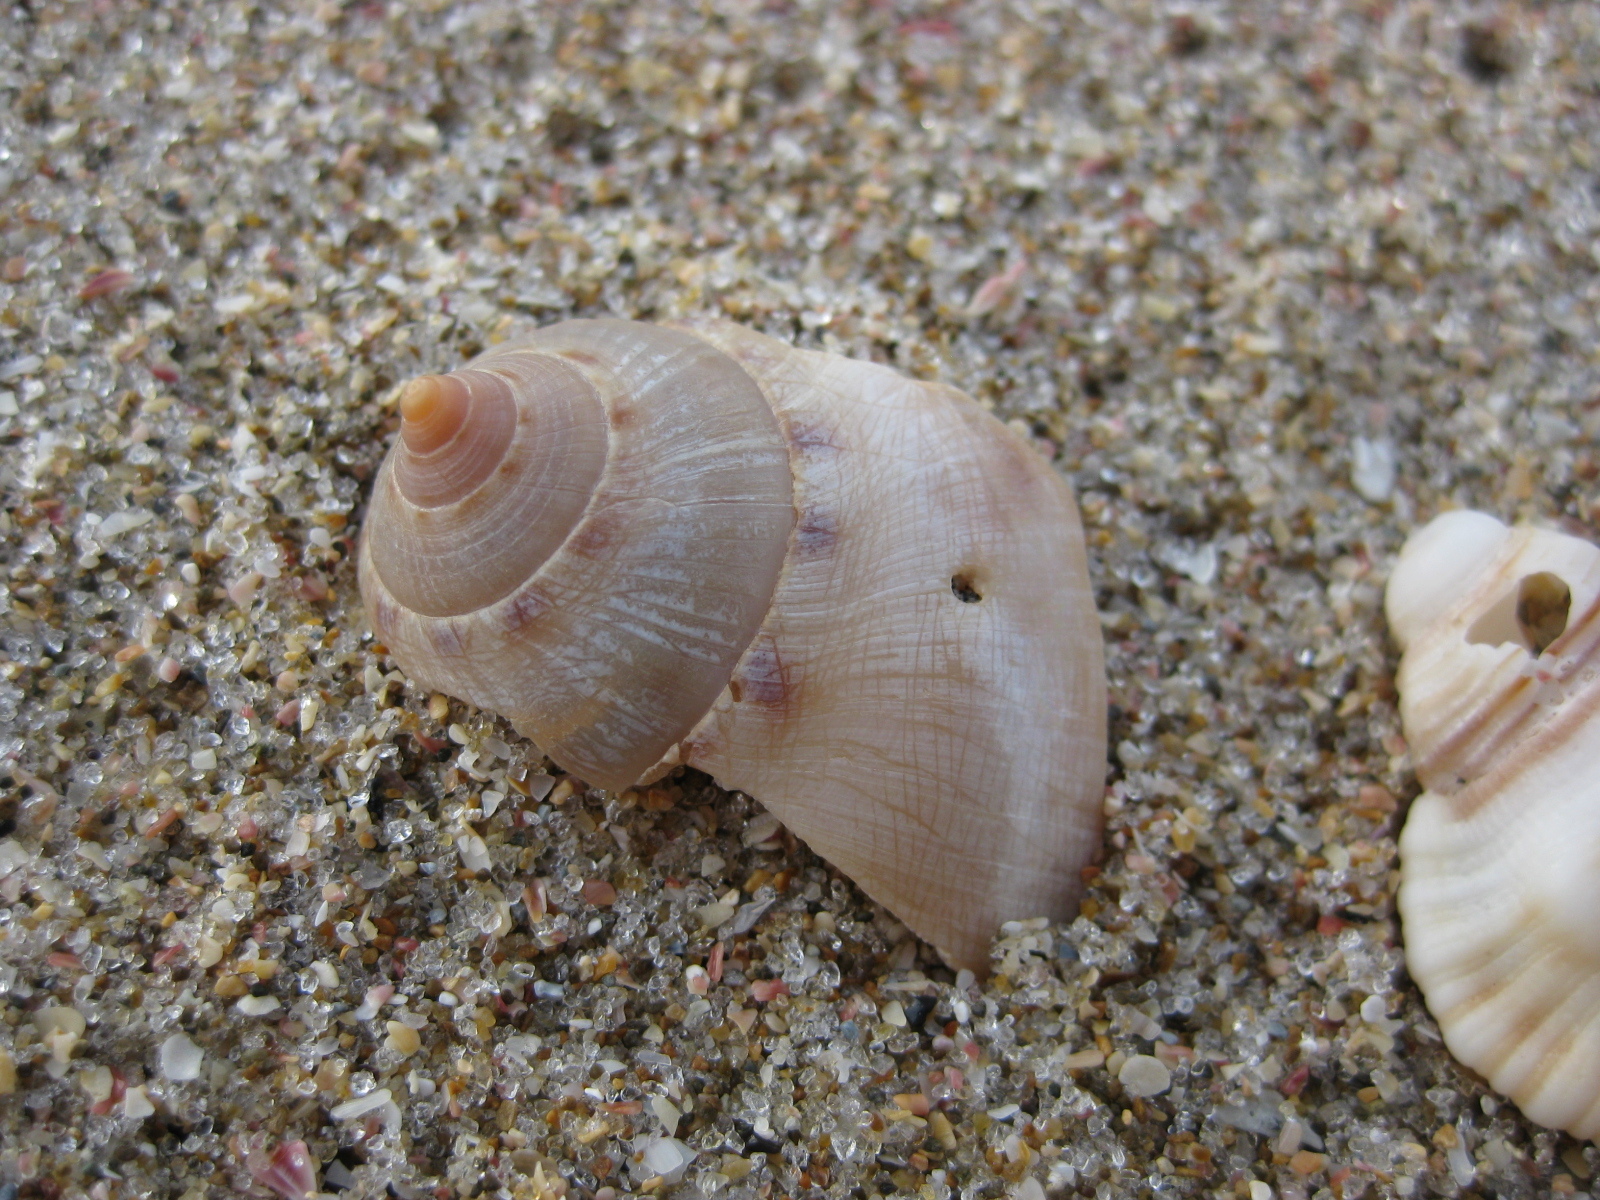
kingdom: Animalia
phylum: Mollusca
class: Gastropoda
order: Littorinimorpha
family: Cassidae
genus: Semicassis
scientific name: Semicassis labiata
